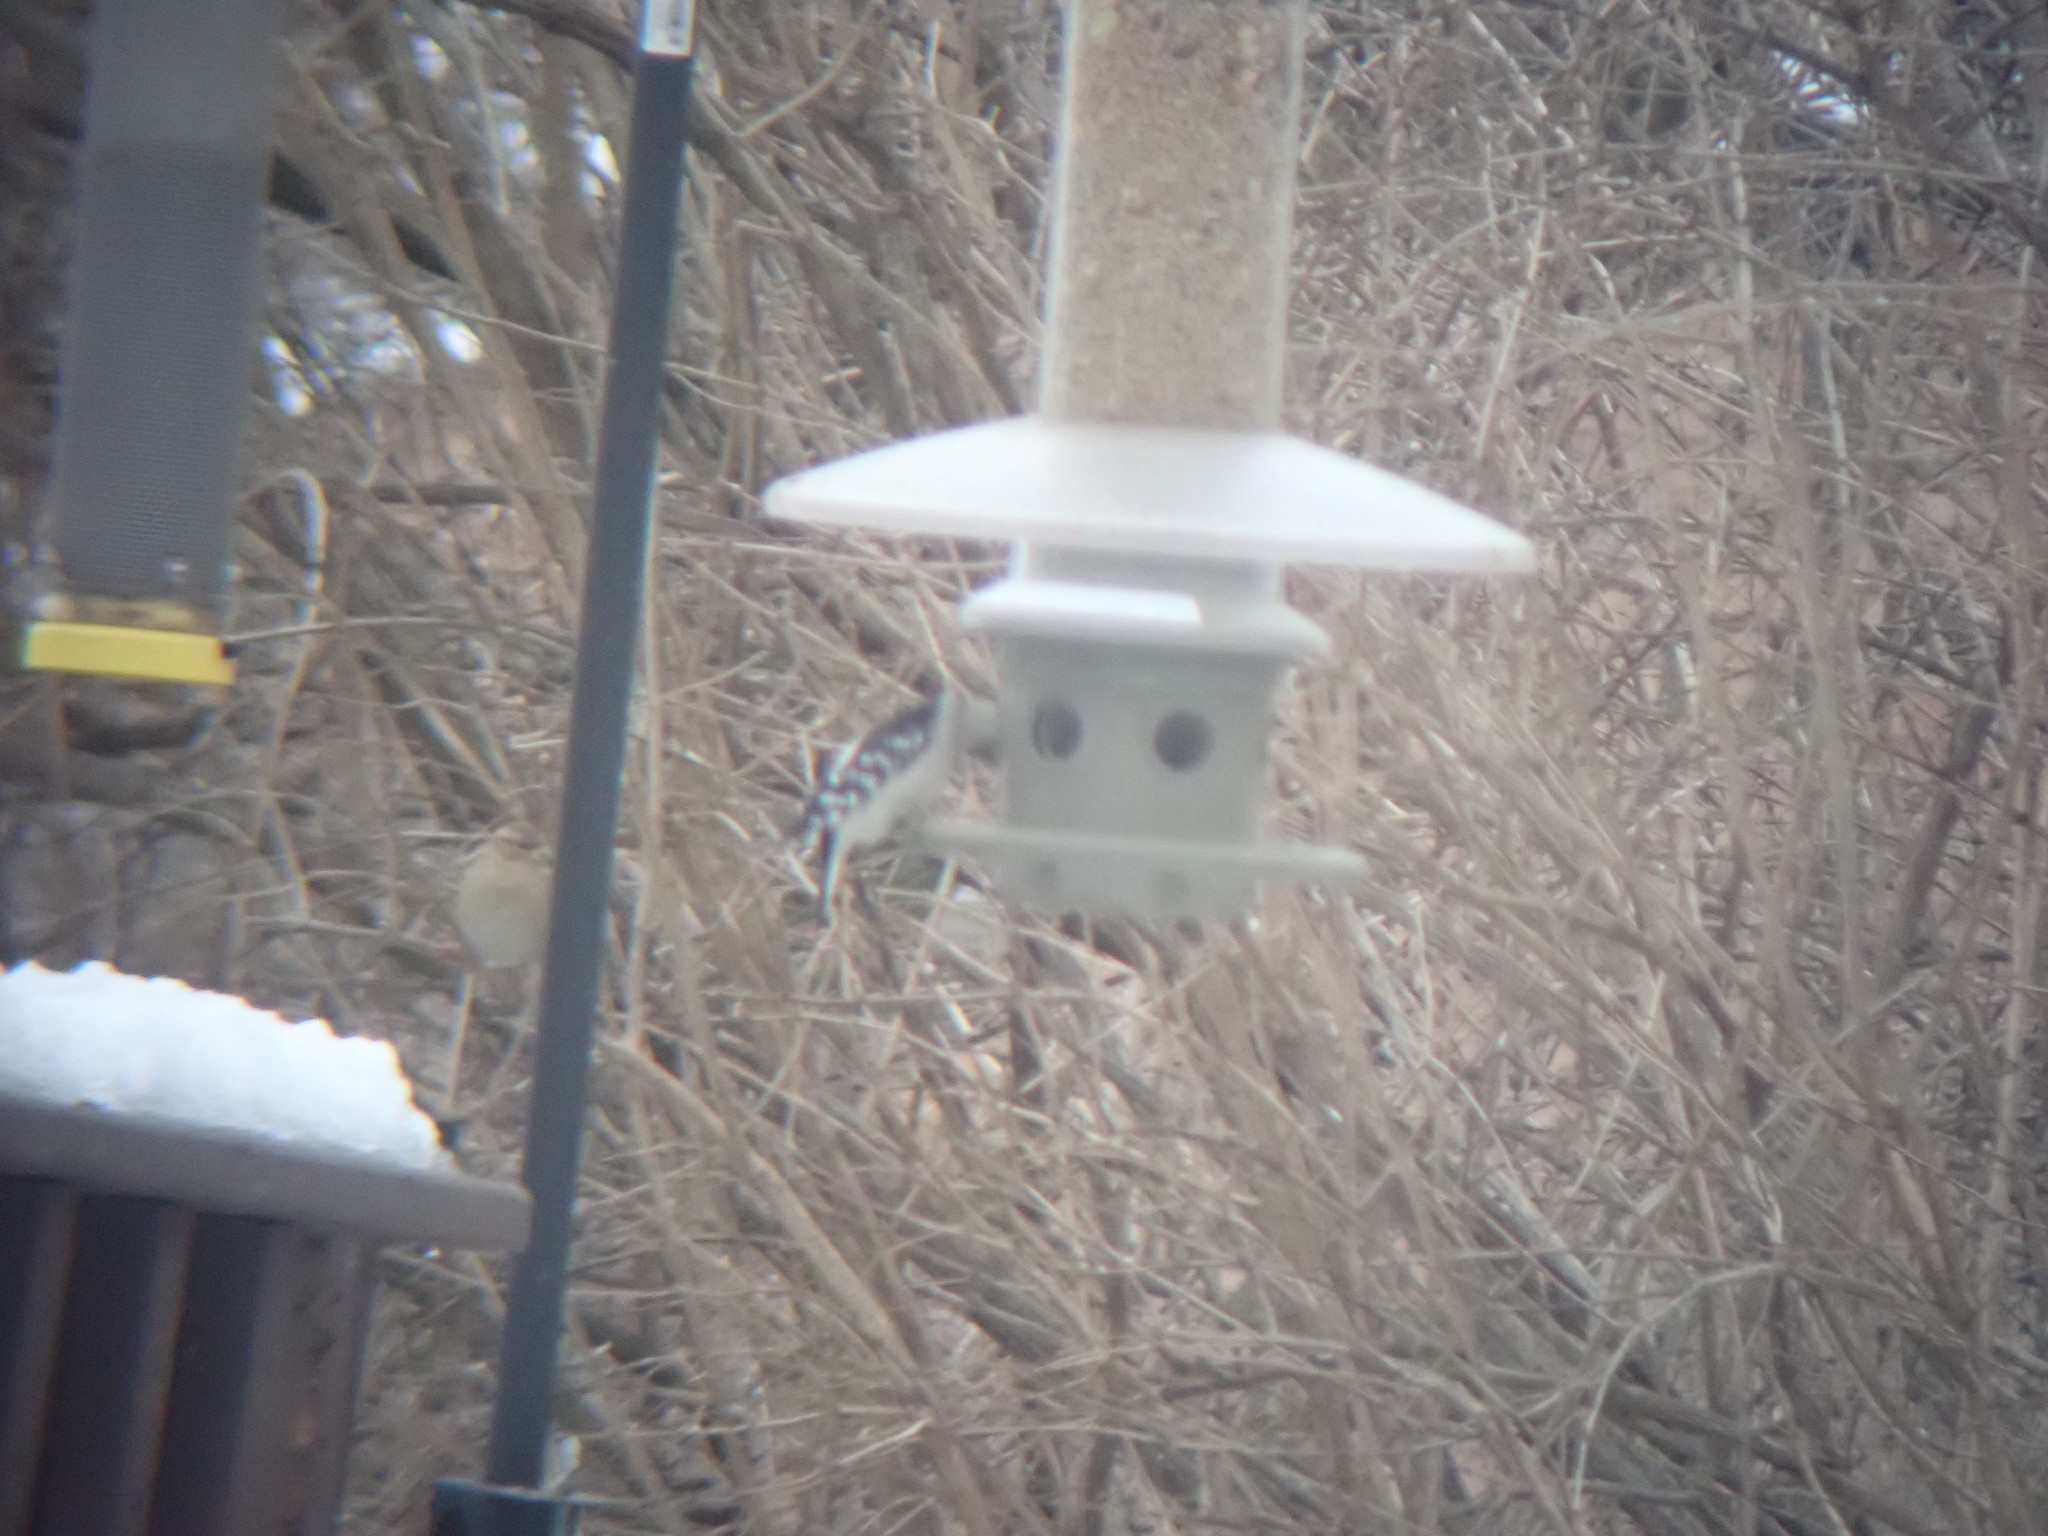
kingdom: Animalia
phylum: Chordata
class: Aves
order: Piciformes
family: Picidae
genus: Dryobates
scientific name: Dryobates pubescens
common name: Downy woodpecker
